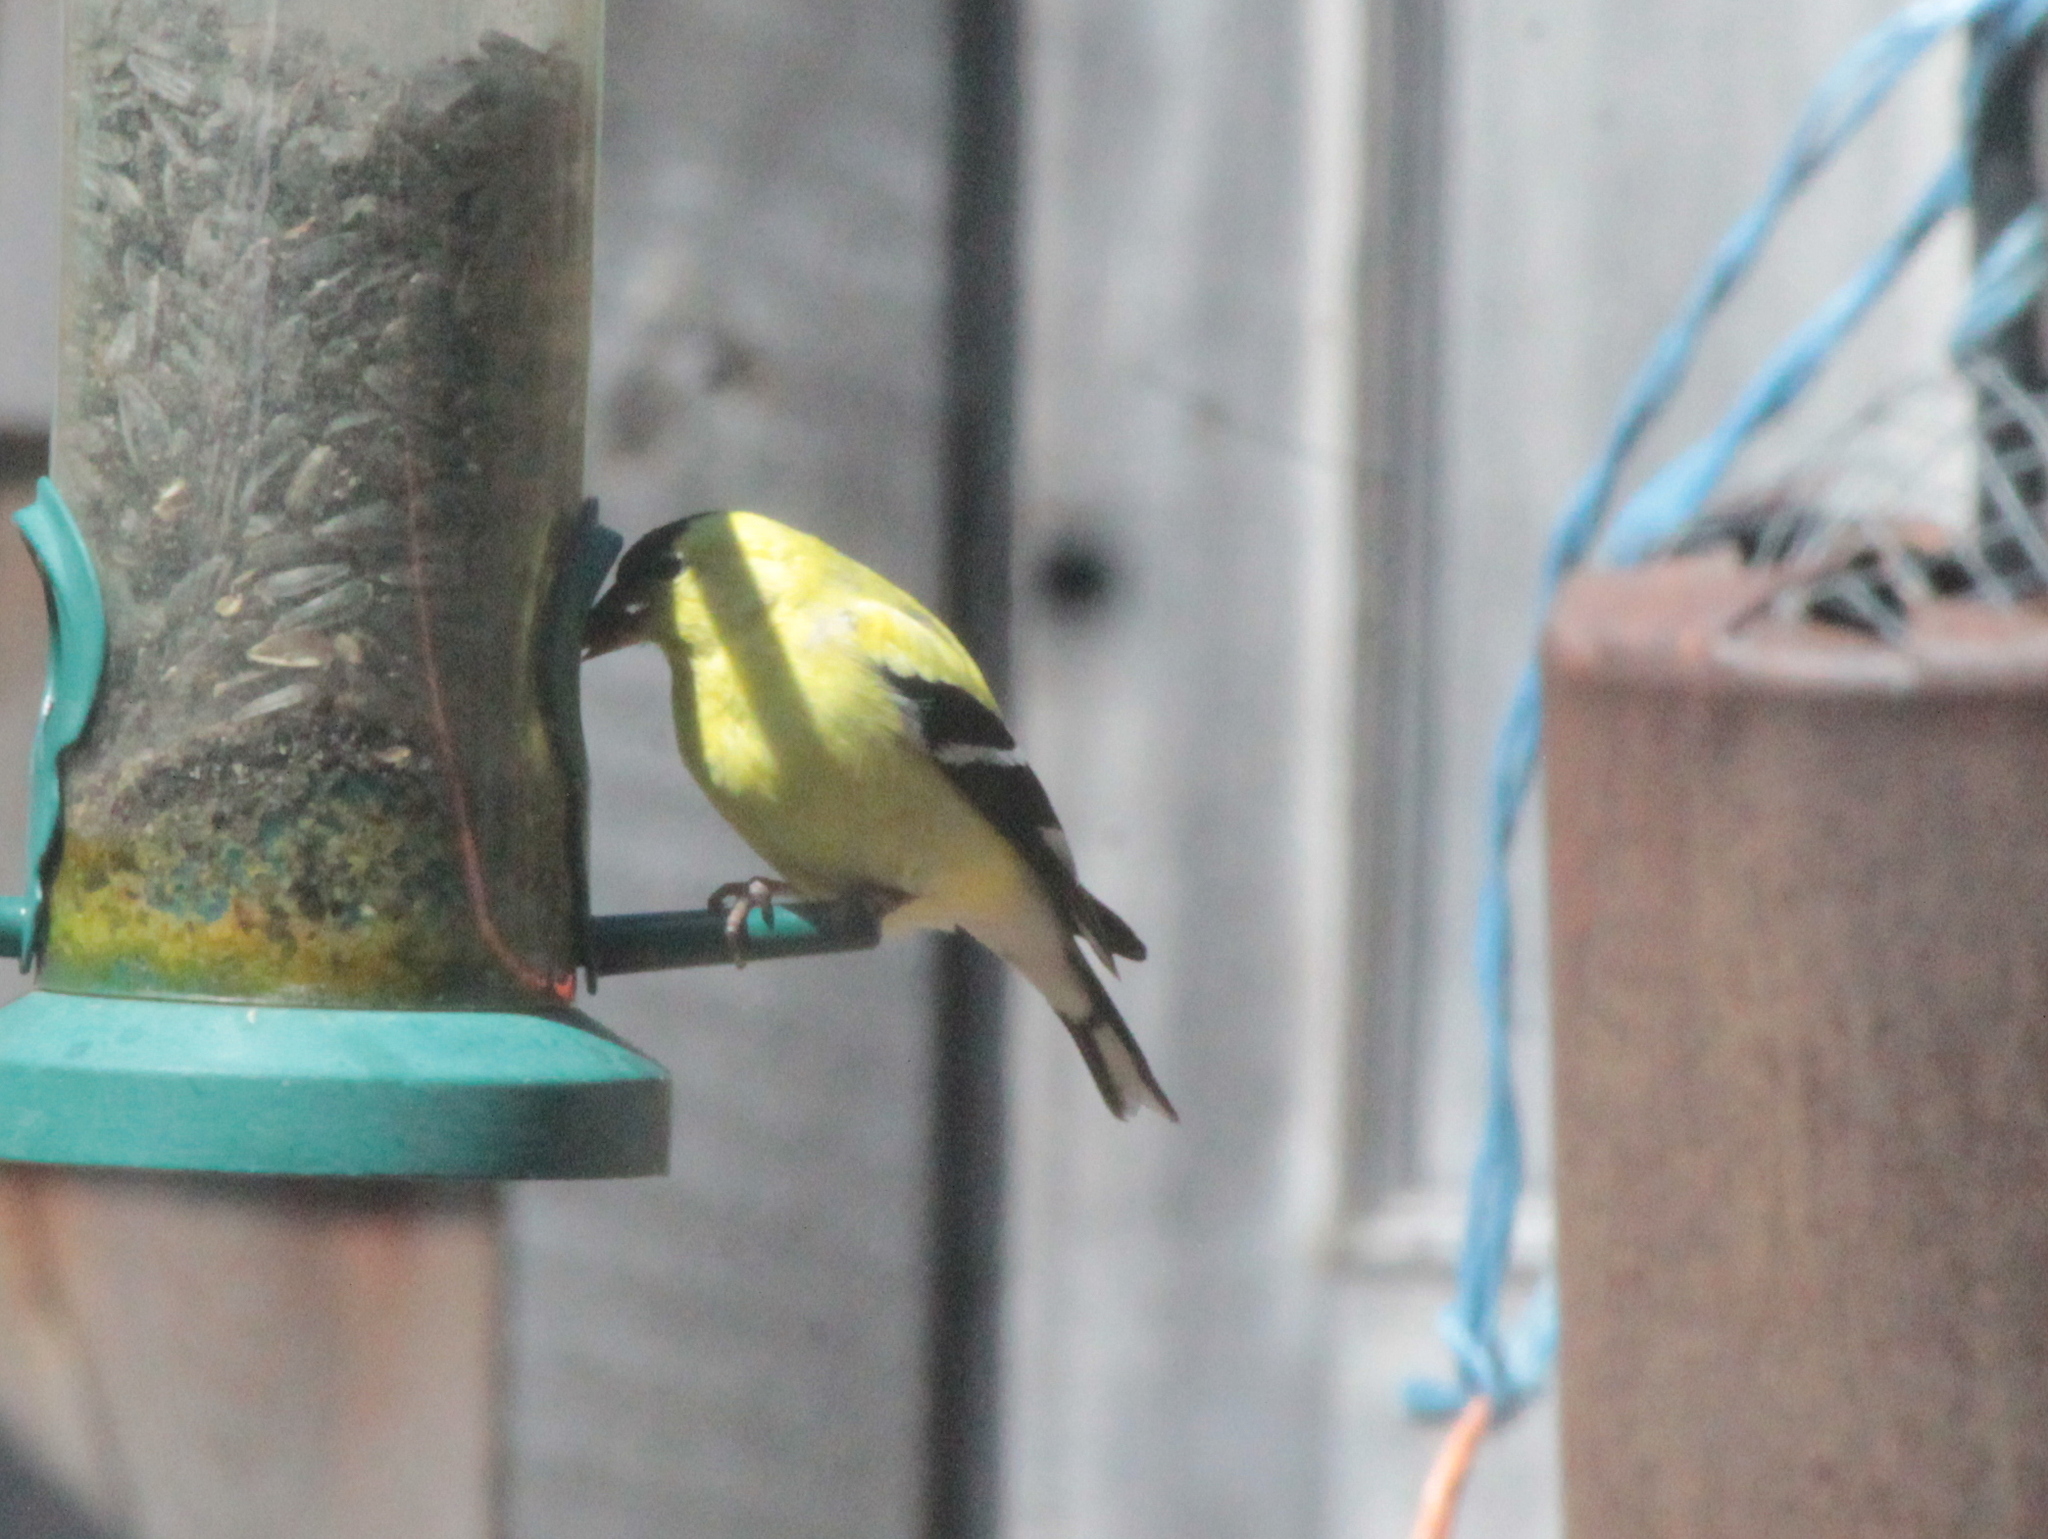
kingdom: Animalia
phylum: Chordata
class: Aves
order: Passeriformes
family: Fringillidae
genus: Spinus
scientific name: Spinus tristis
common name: American goldfinch
